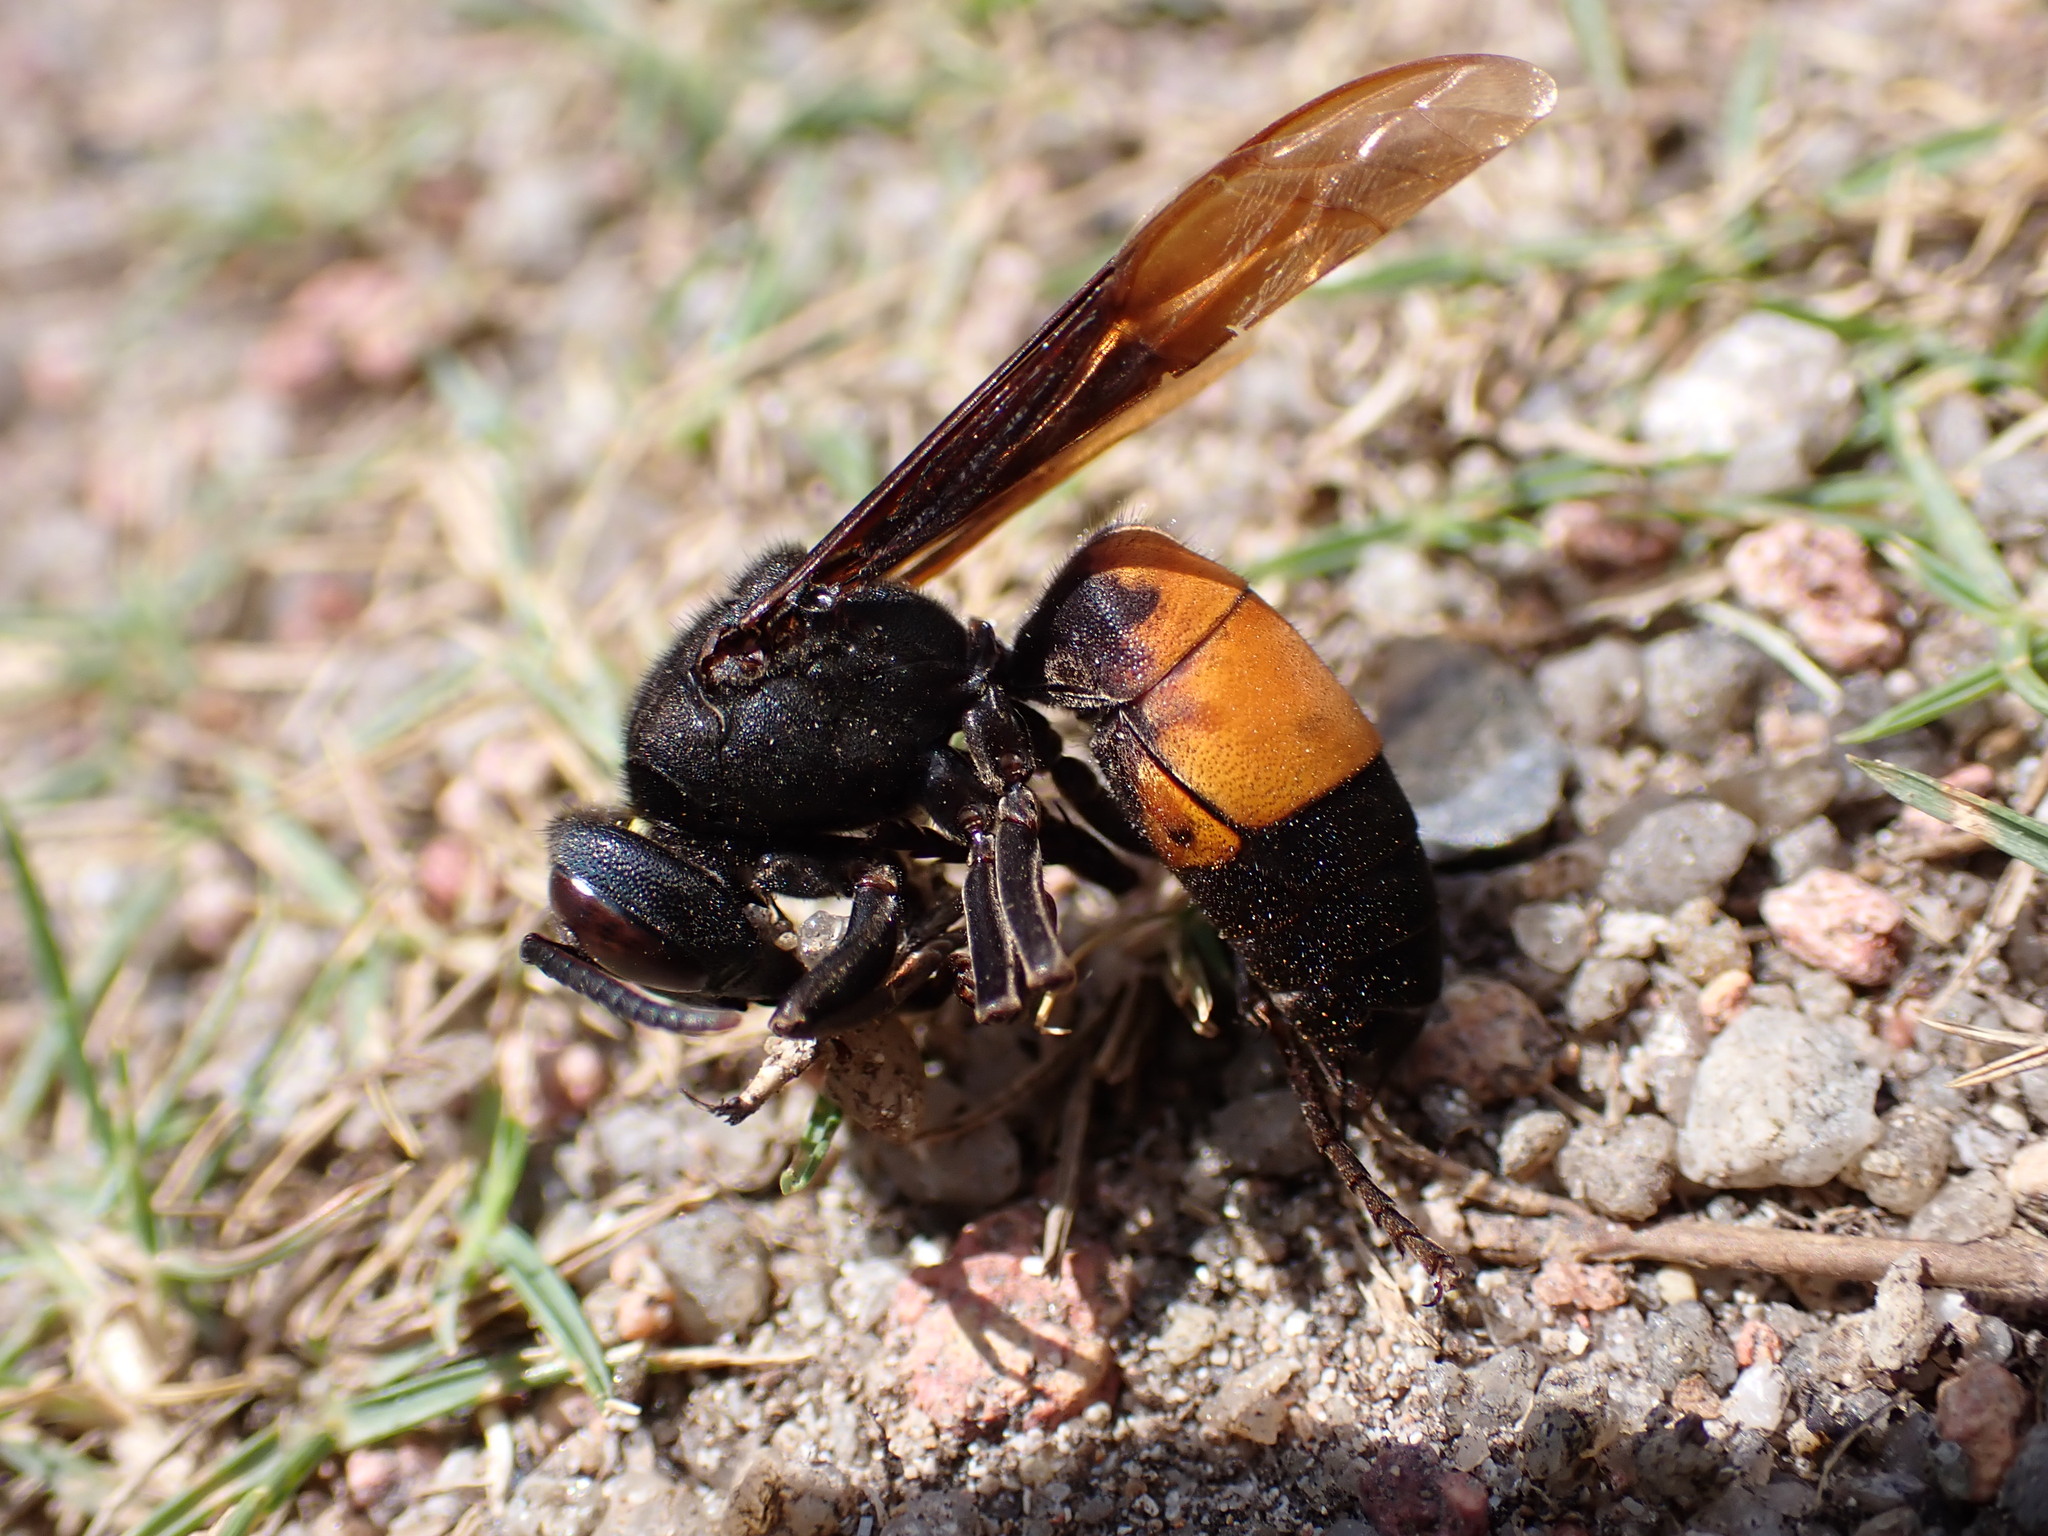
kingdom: Animalia
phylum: Arthropoda
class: Insecta
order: Hymenoptera
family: Vespidae
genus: Vespa
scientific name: Vespa affinis
